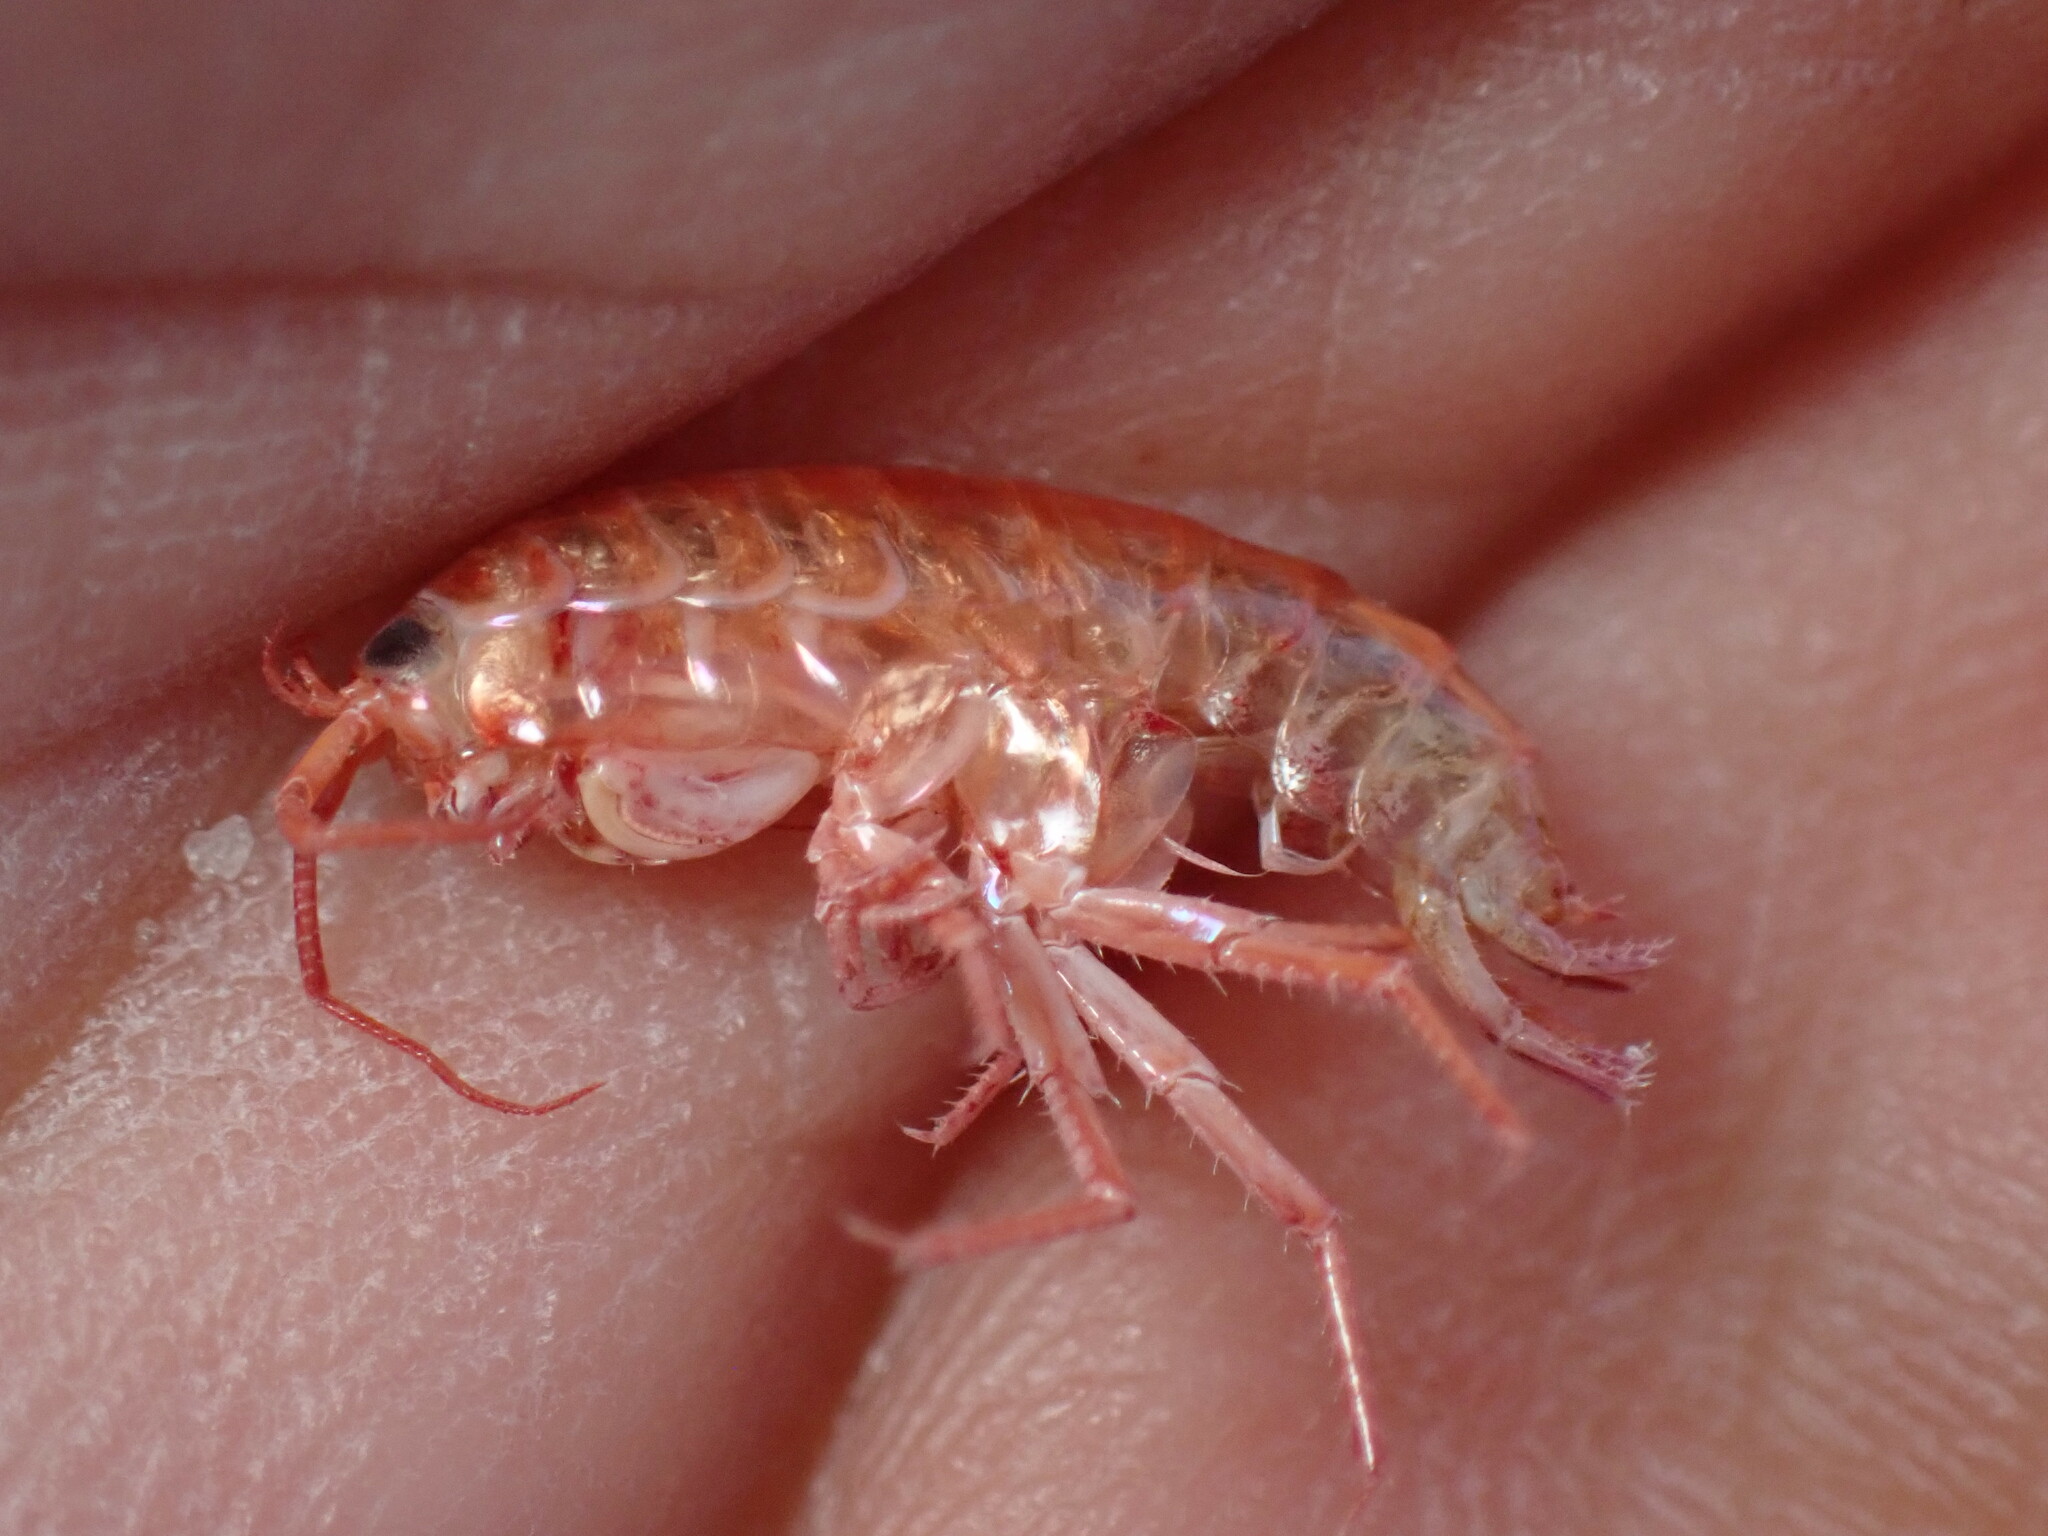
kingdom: Animalia
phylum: Arthropoda
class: Malacostraca
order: Amphipoda
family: Talitridae
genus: Speziorchestia
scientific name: Speziorchestia grillus
